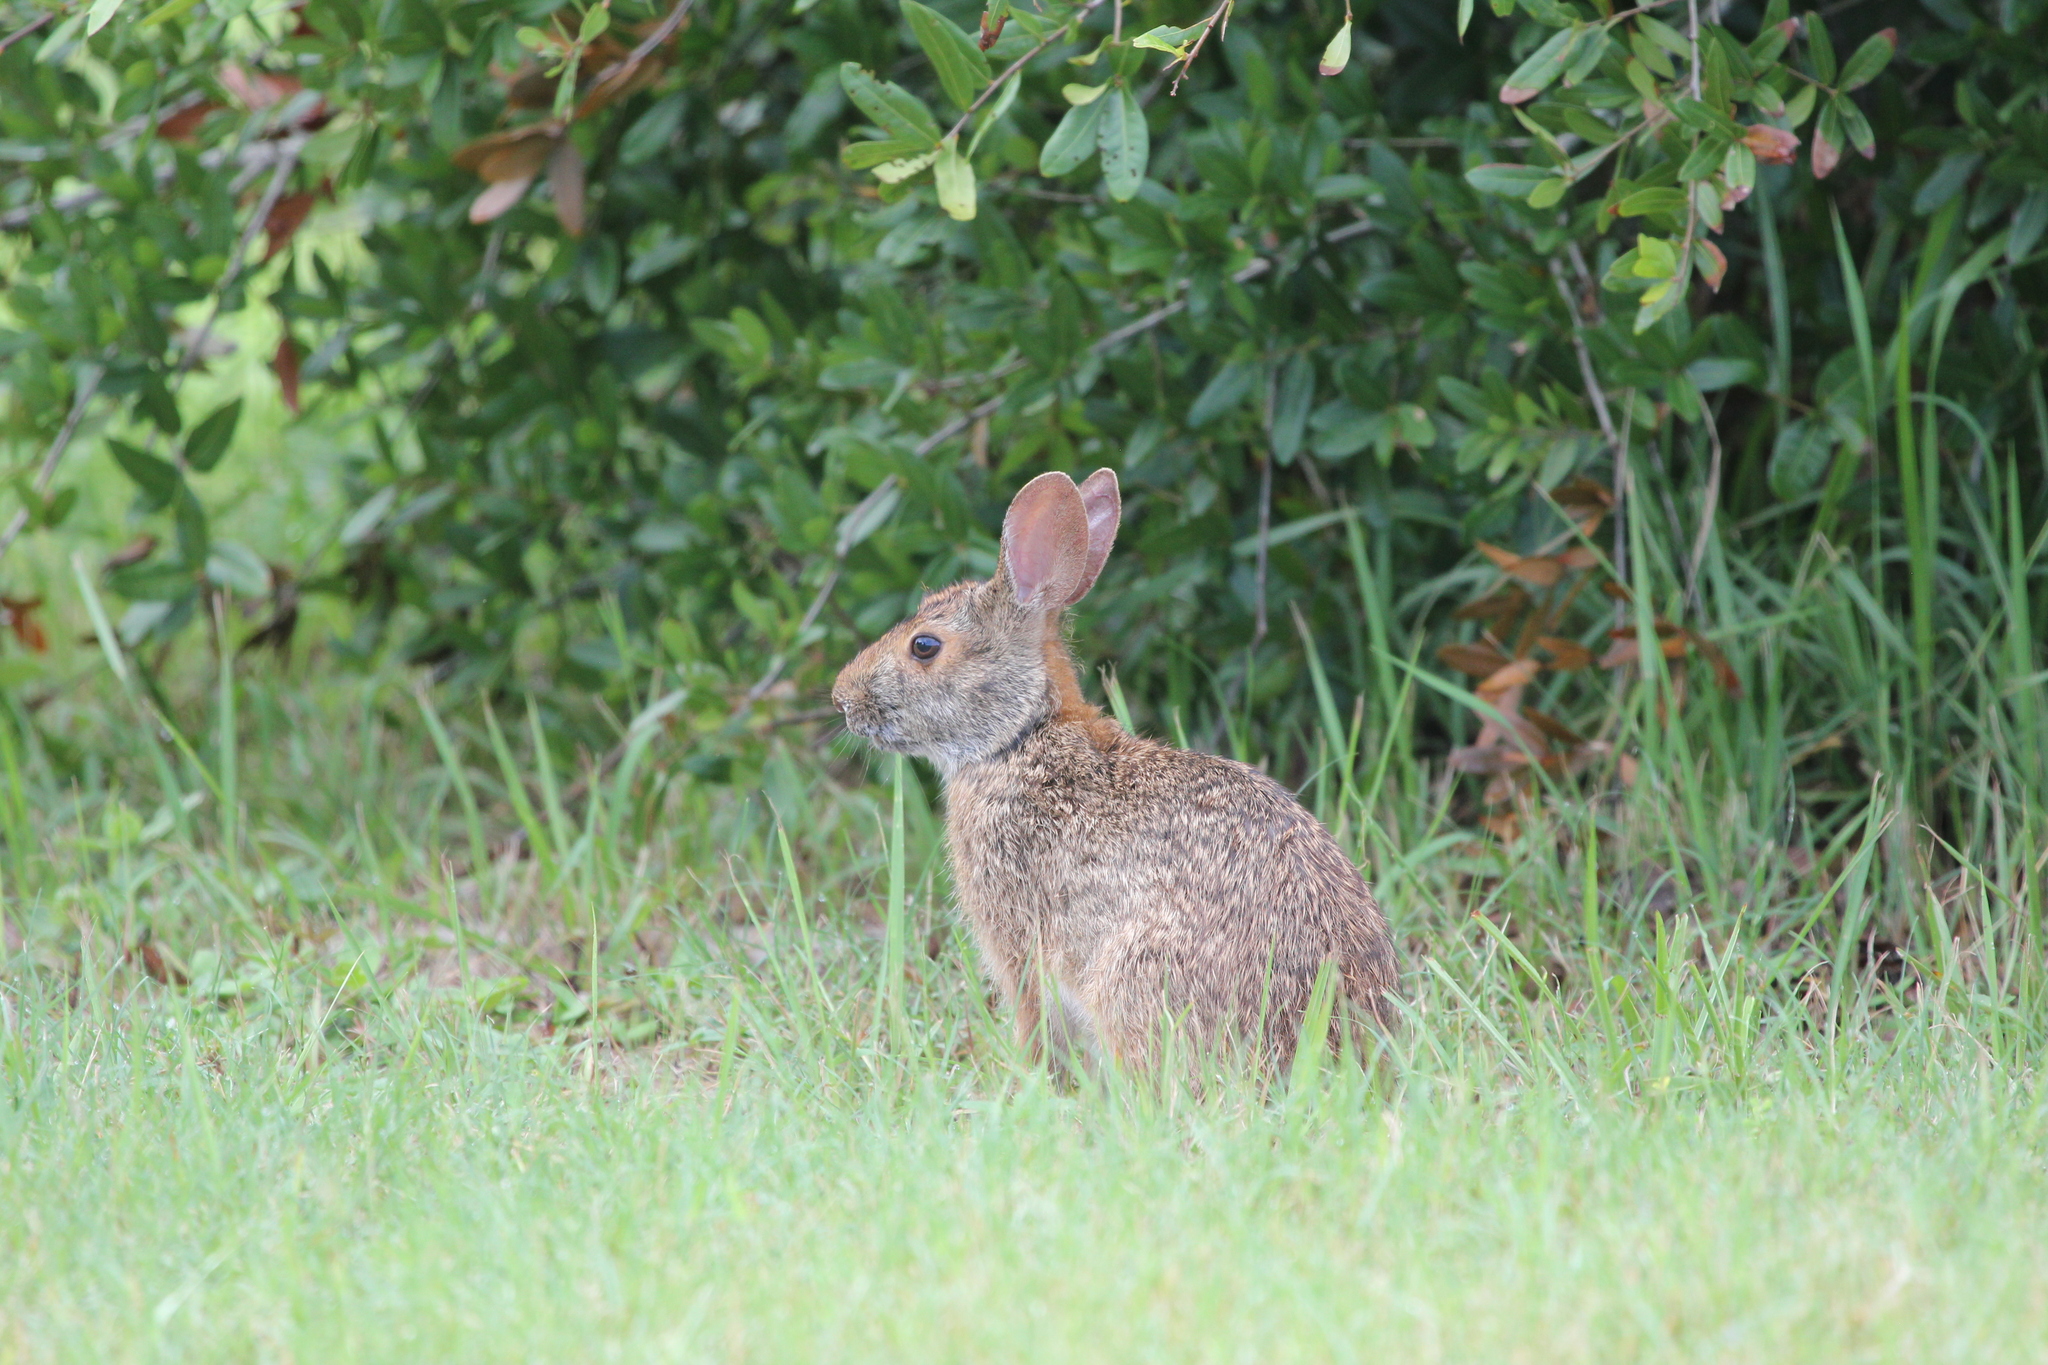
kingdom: Animalia
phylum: Chordata
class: Mammalia
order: Lagomorpha
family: Leporidae
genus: Sylvilagus
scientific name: Sylvilagus aquaticus
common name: Swamp rabbit
